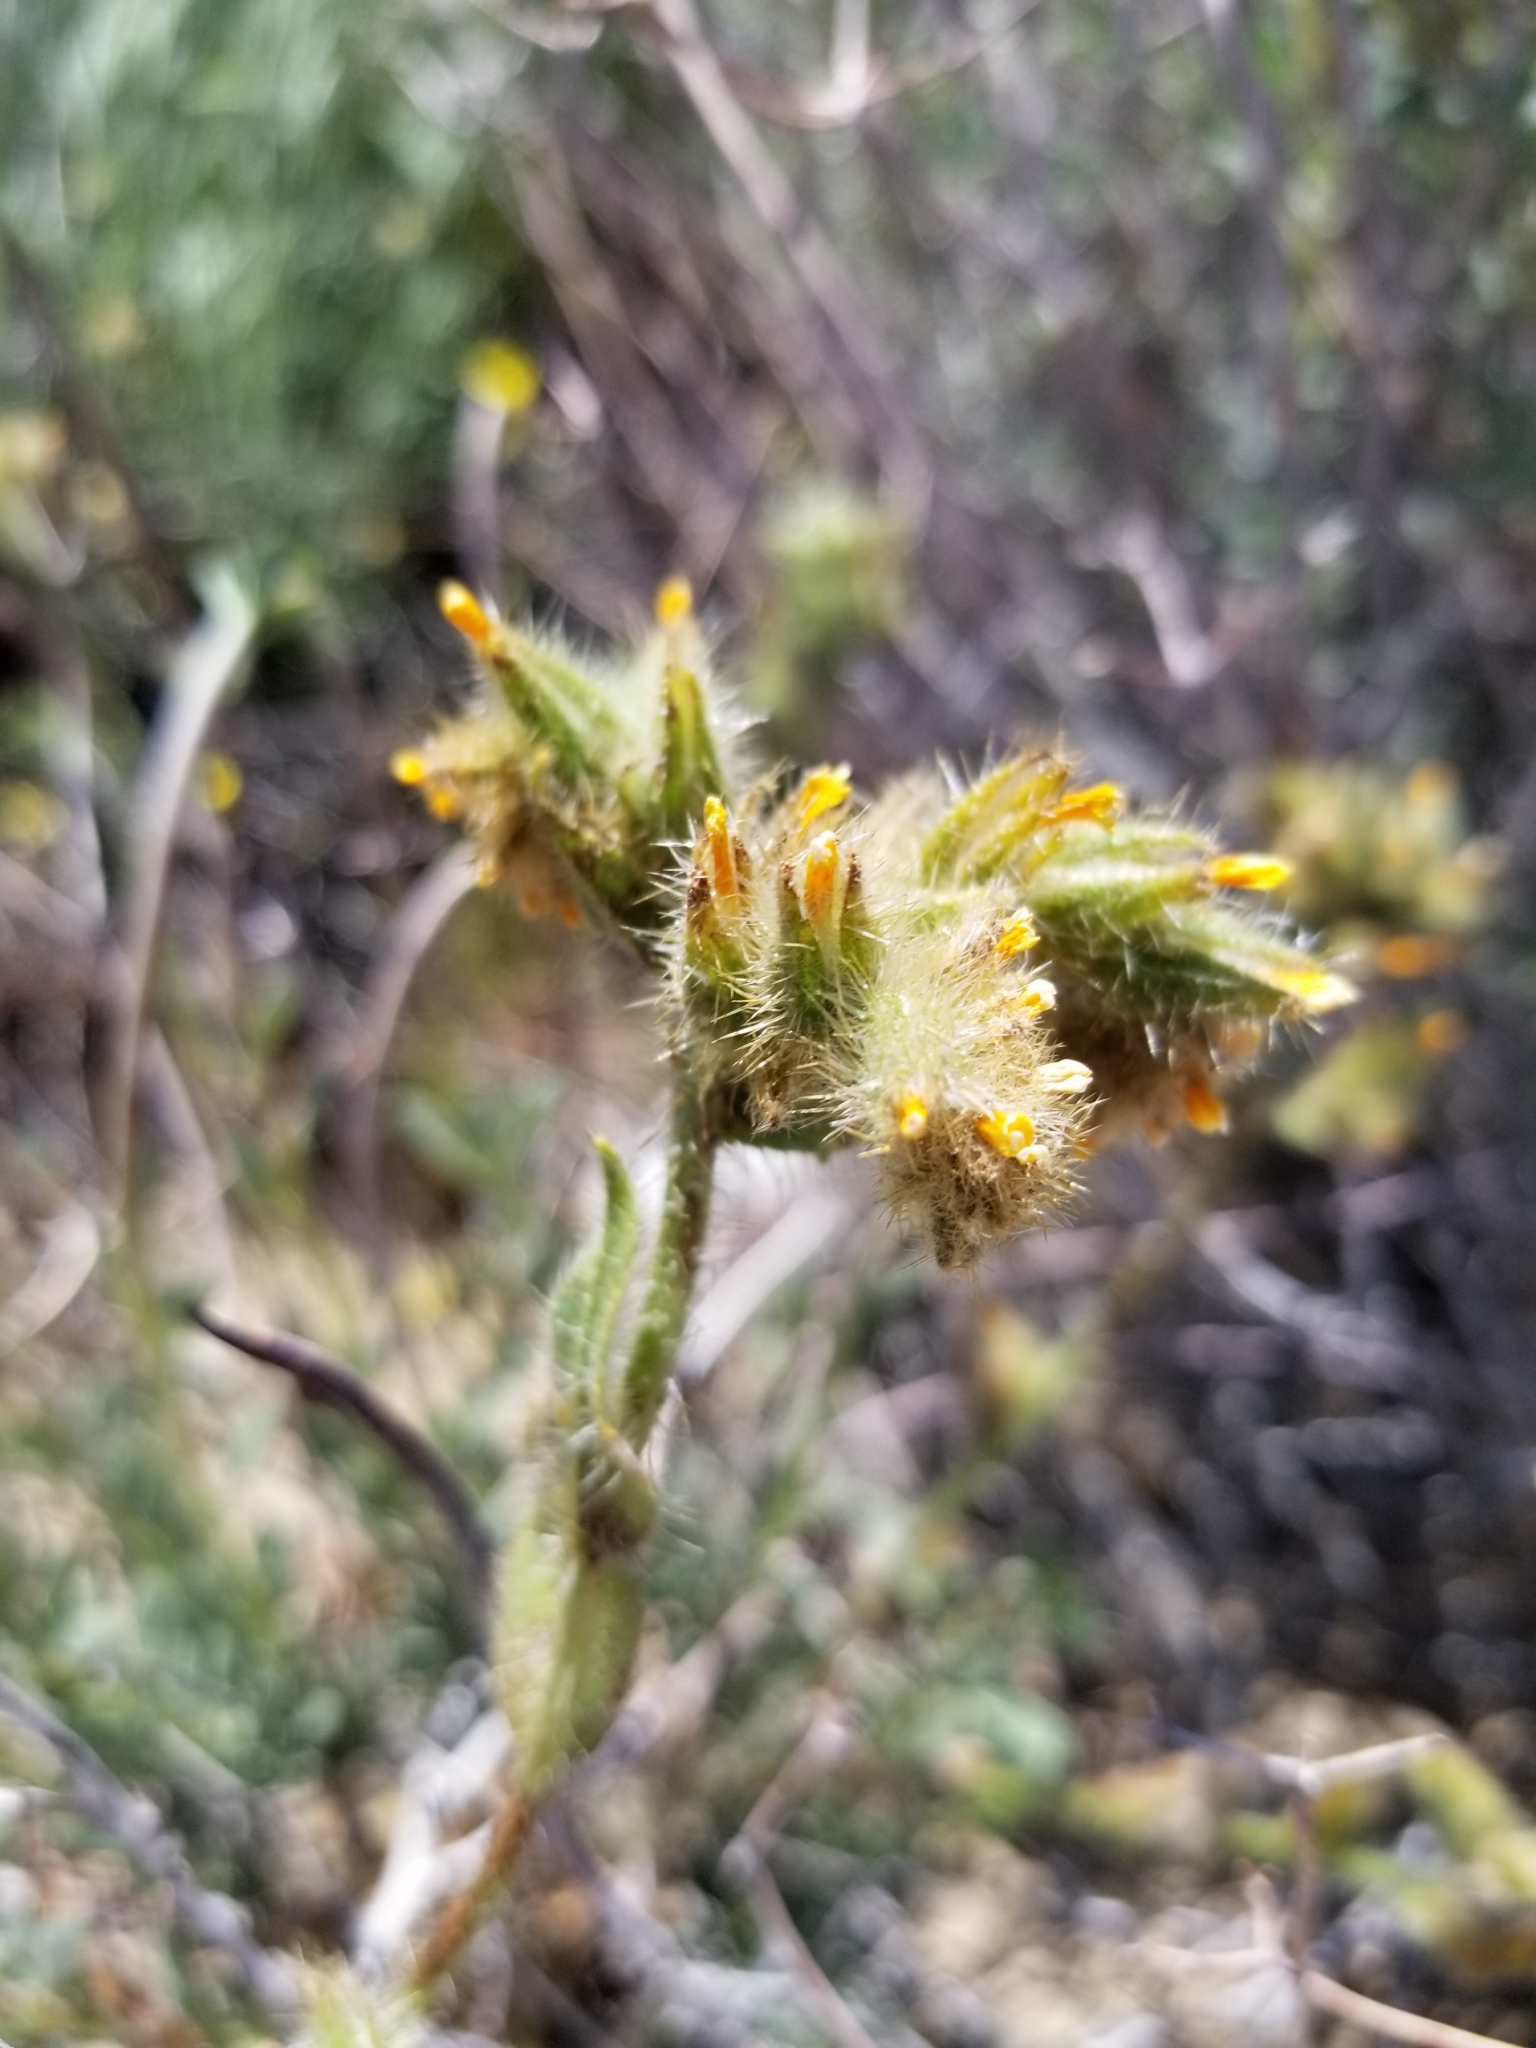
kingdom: Plantae
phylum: Tracheophyta
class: Magnoliopsida
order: Boraginales
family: Boraginaceae
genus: Amsinckia
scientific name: Amsinckia tessellata
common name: Tessellate fiddleneck
